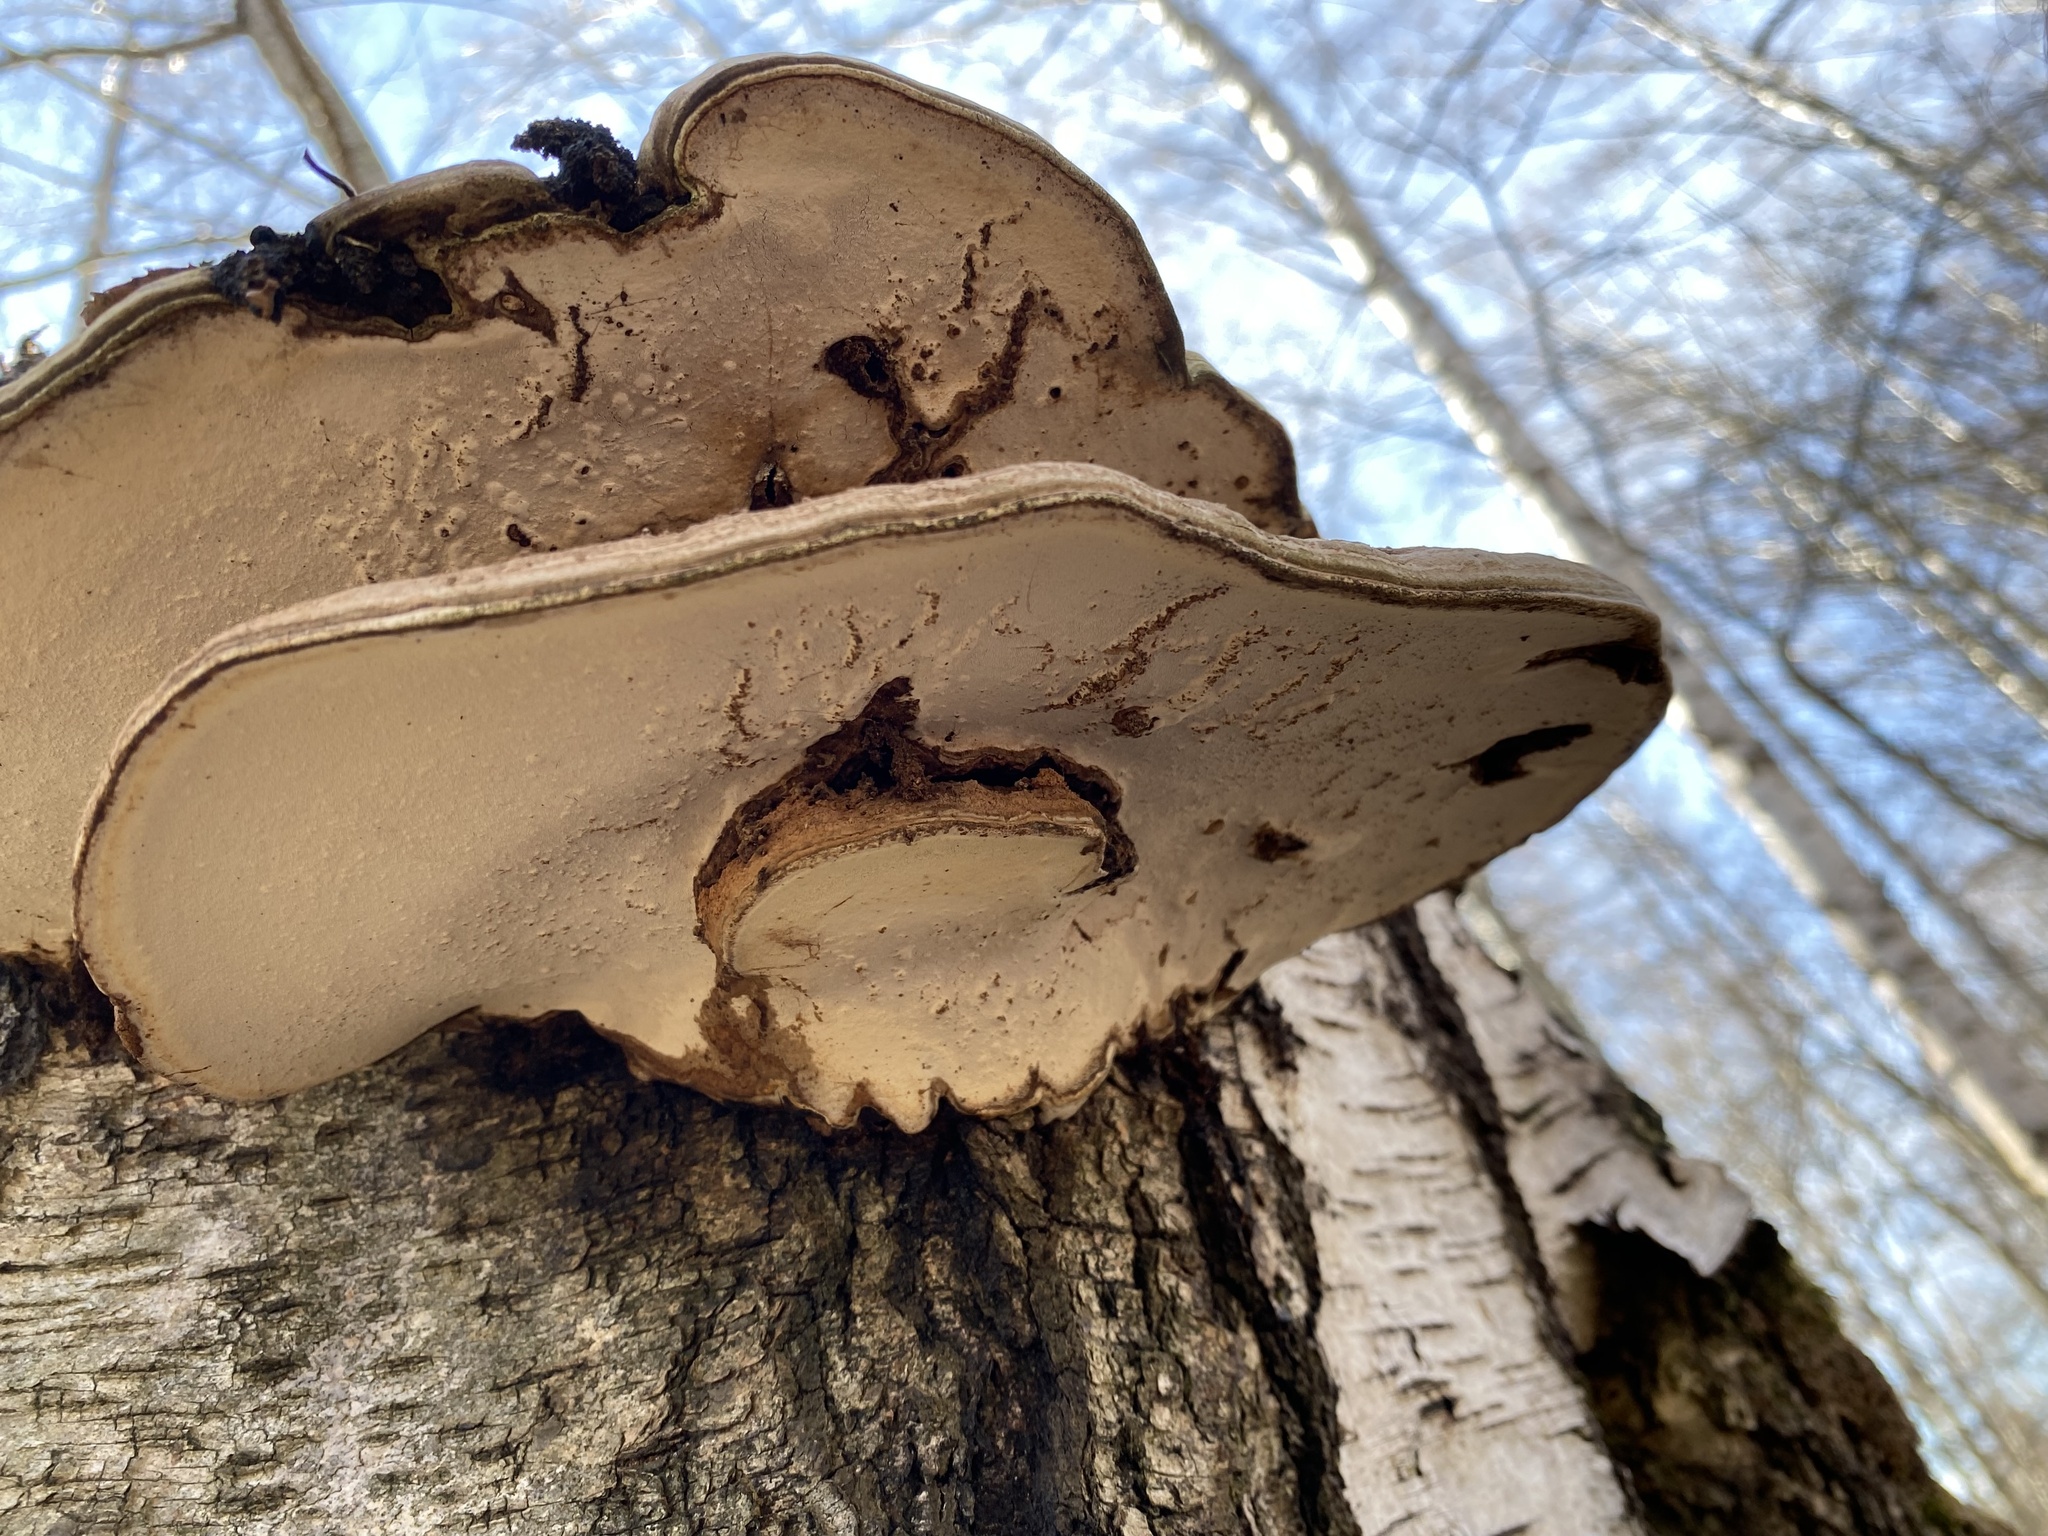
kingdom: Fungi
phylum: Basidiomycota
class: Agaricomycetes
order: Polyporales
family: Polyporaceae
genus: Ganoderma
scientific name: Ganoderma applanatum
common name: Artist's bracket
